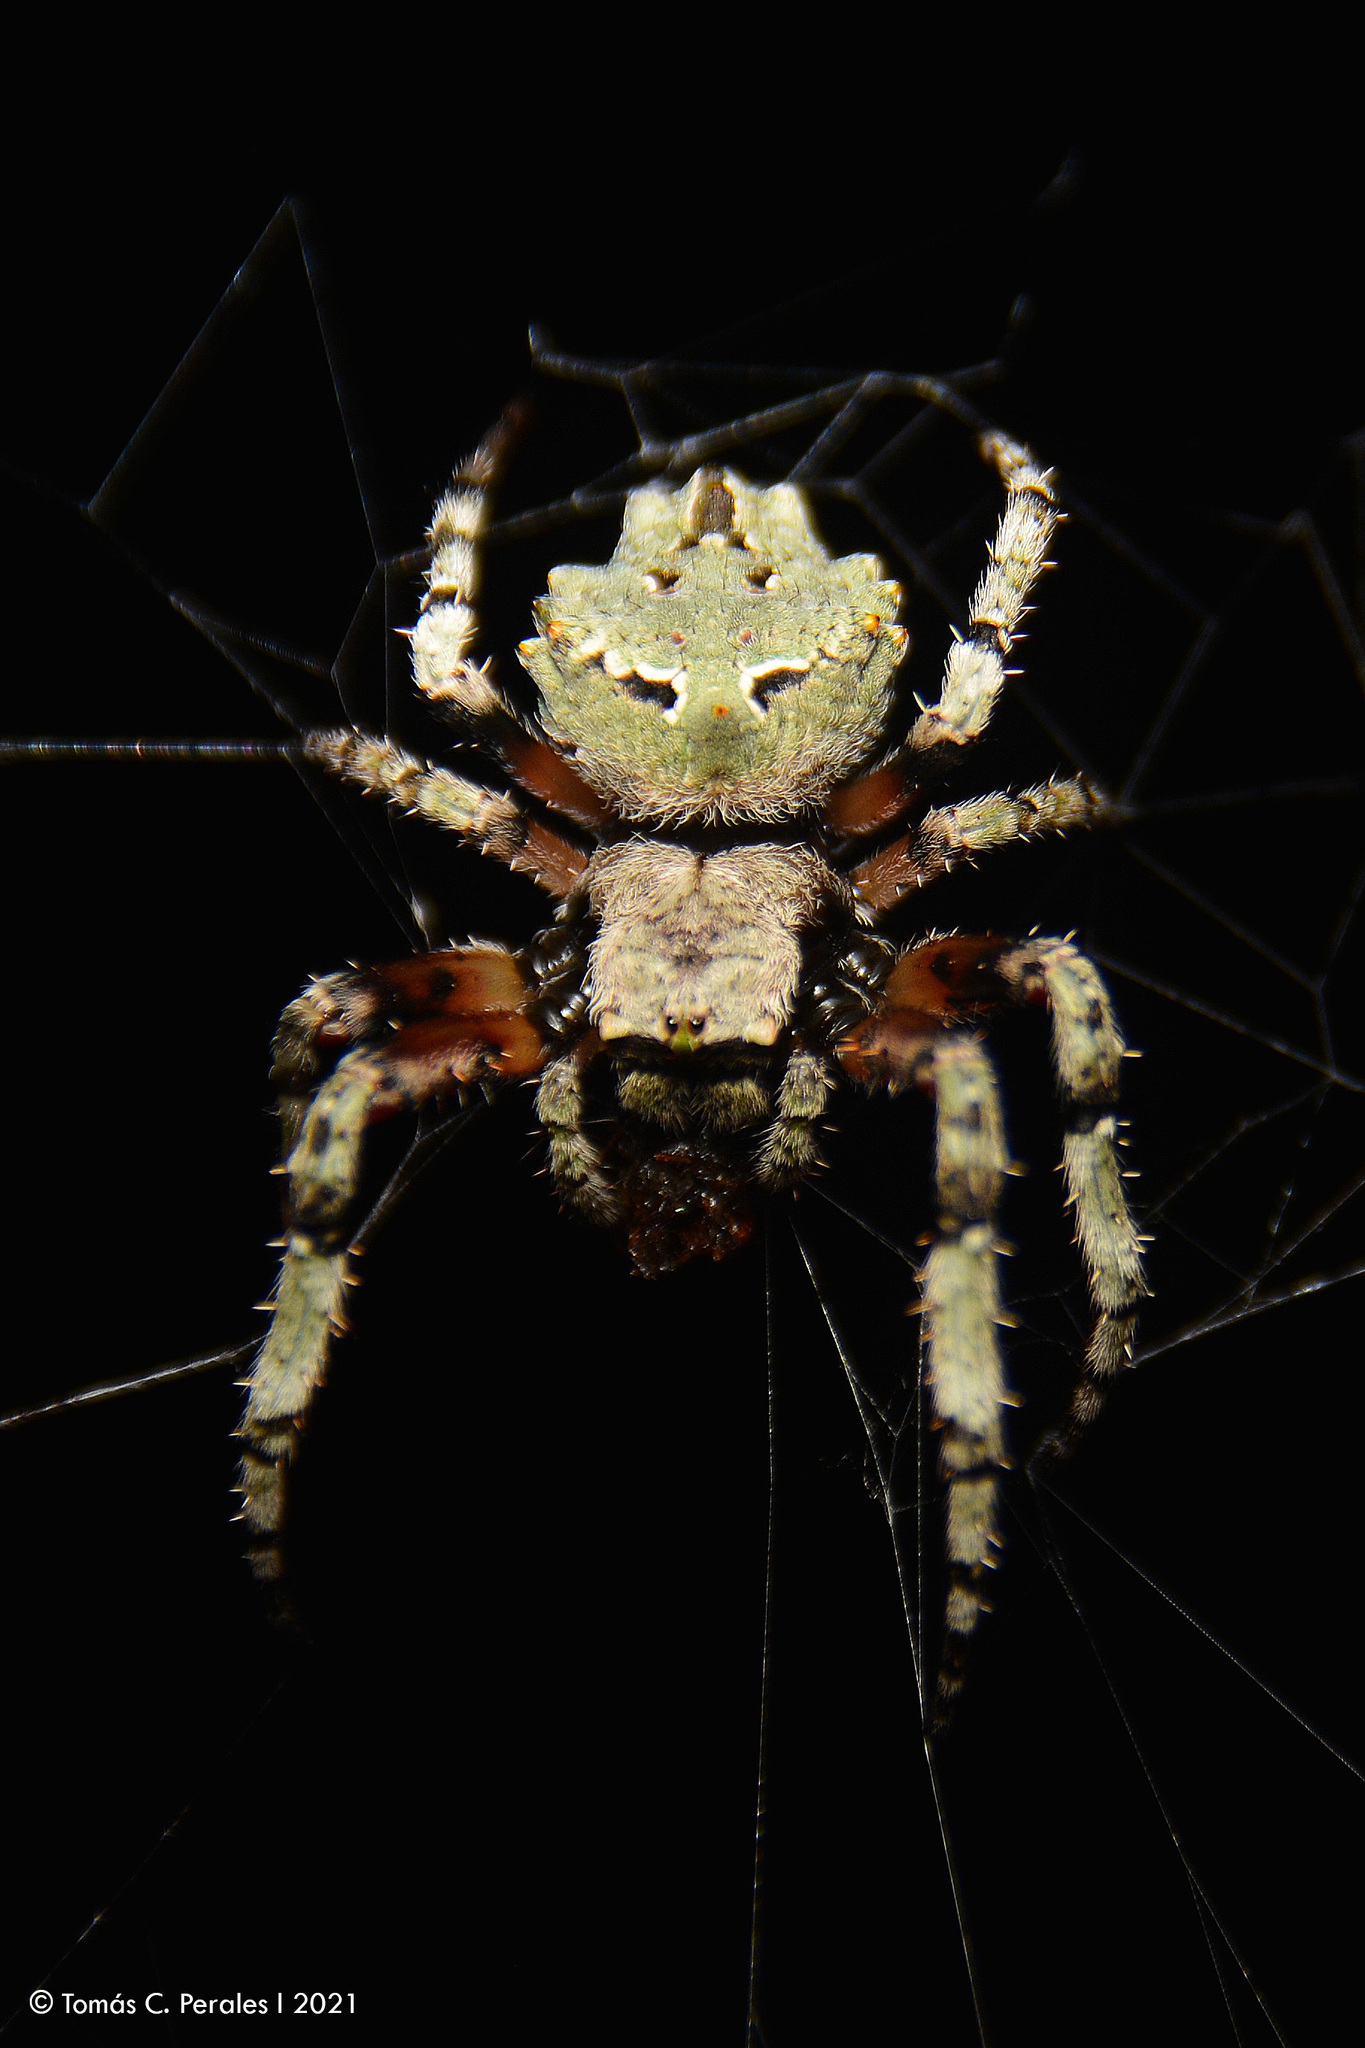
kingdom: Animalia
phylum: Arthropoda
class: Arachnida
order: Araneae
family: Araneidae
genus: Parawixia
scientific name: Parawixia audax
